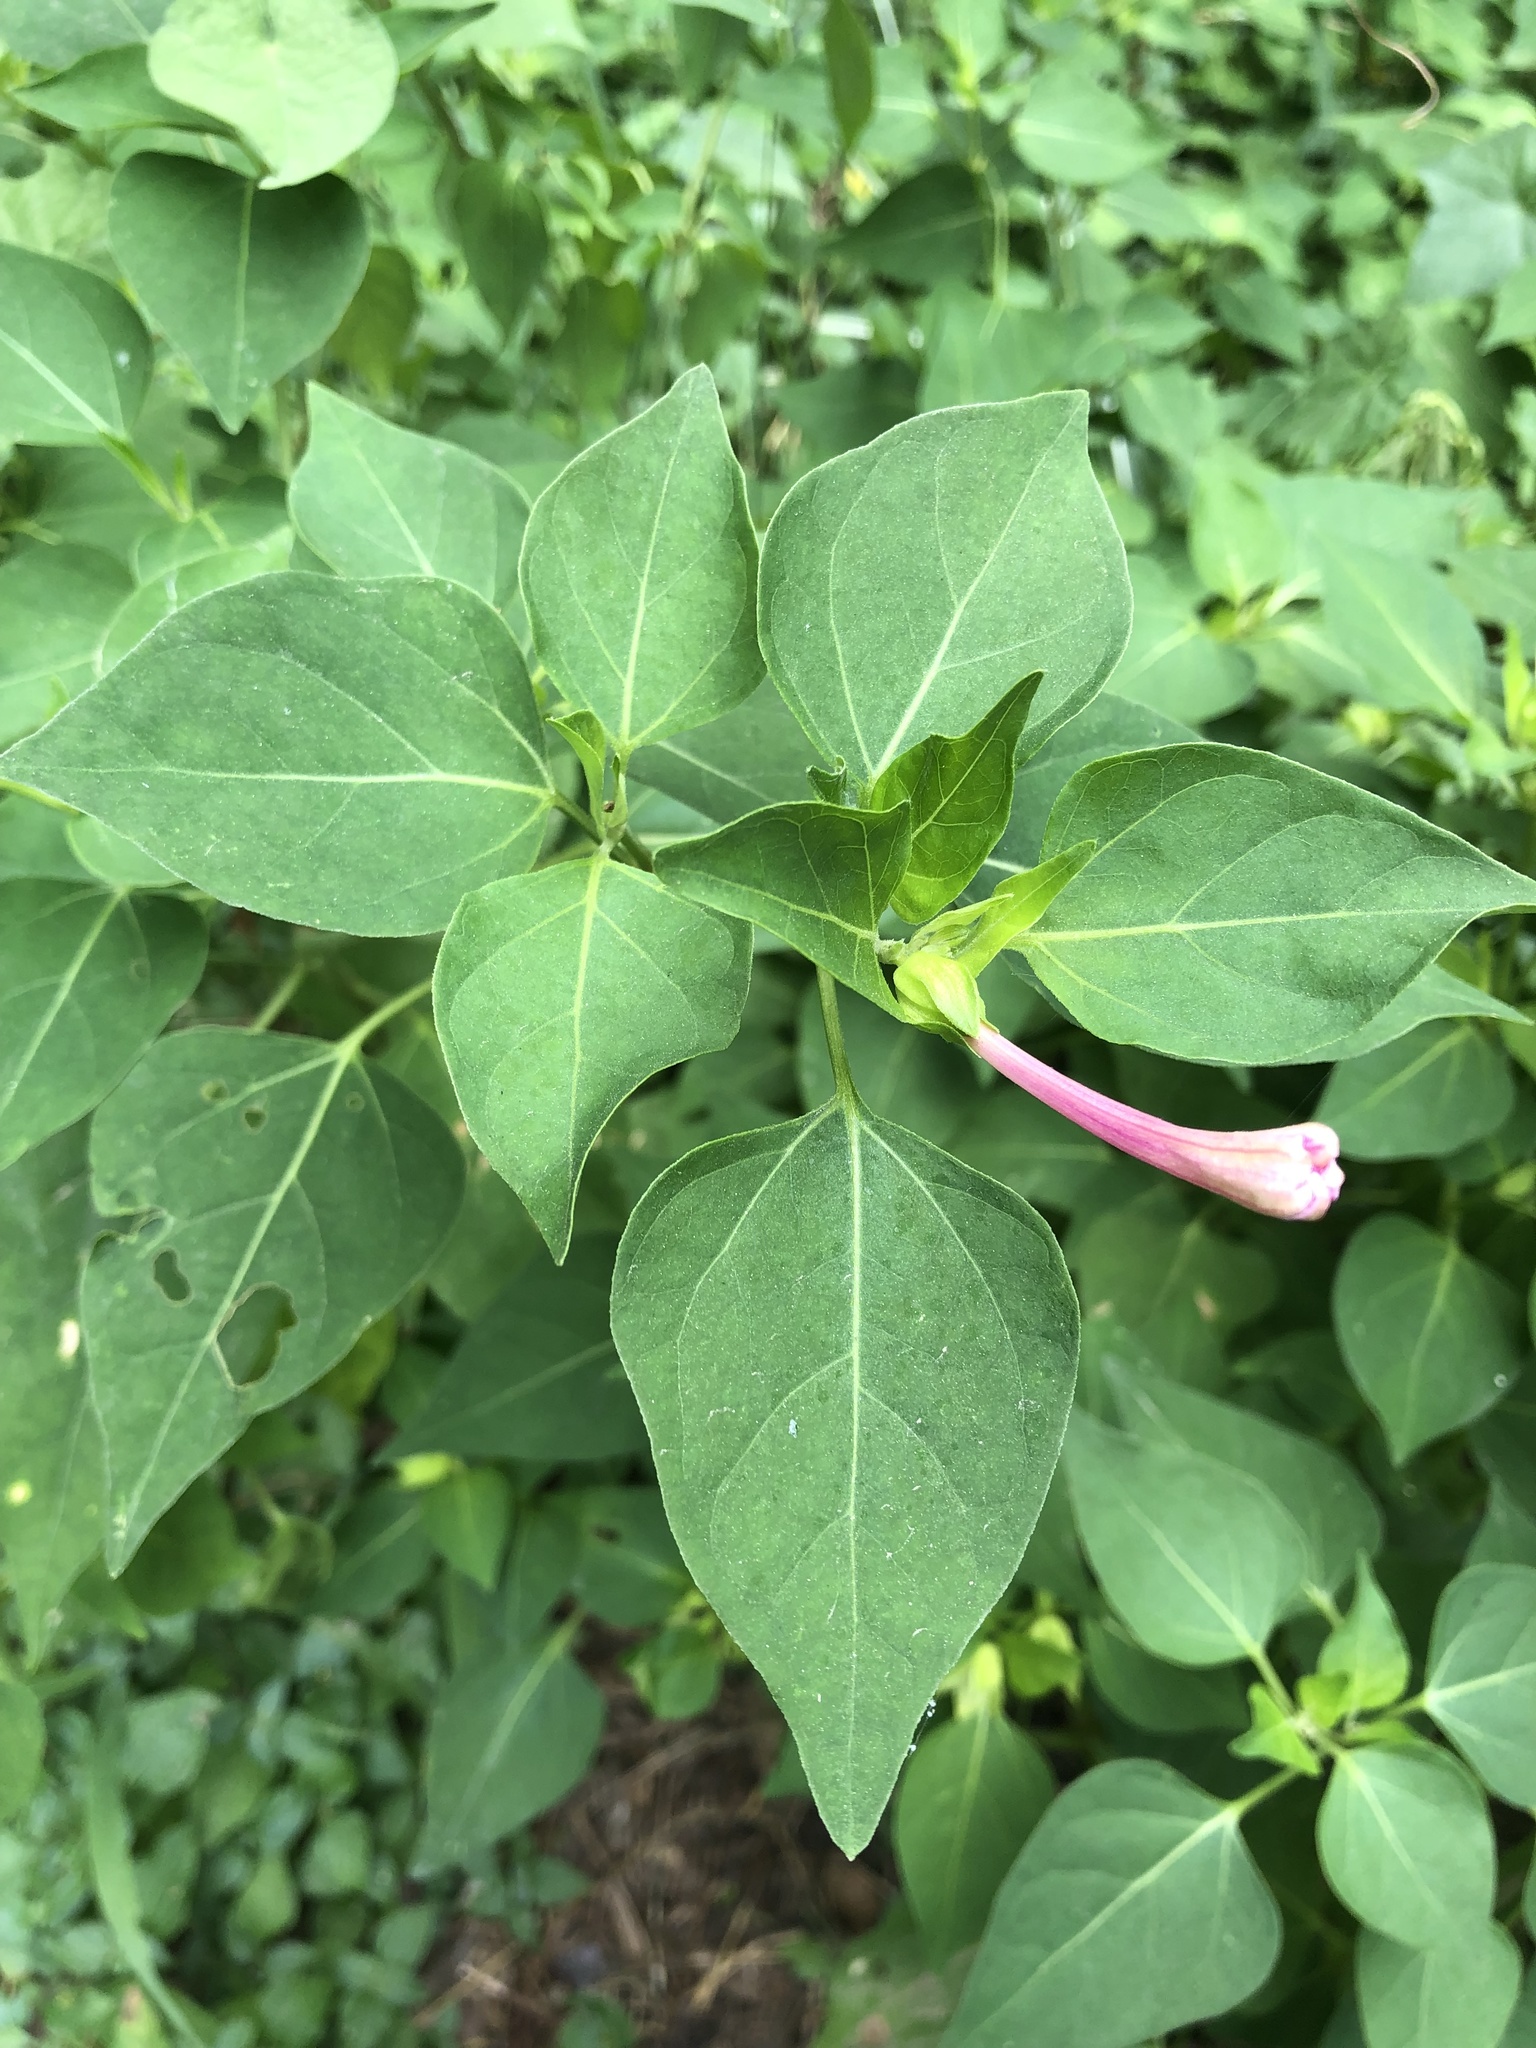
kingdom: Plantae
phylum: Tracheophyta
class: Magnoliopsida
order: Caryophyllales
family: Nyctaginaceae
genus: Mirabilis
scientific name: Mirabilis jalapa
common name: Marvel-of-peru
